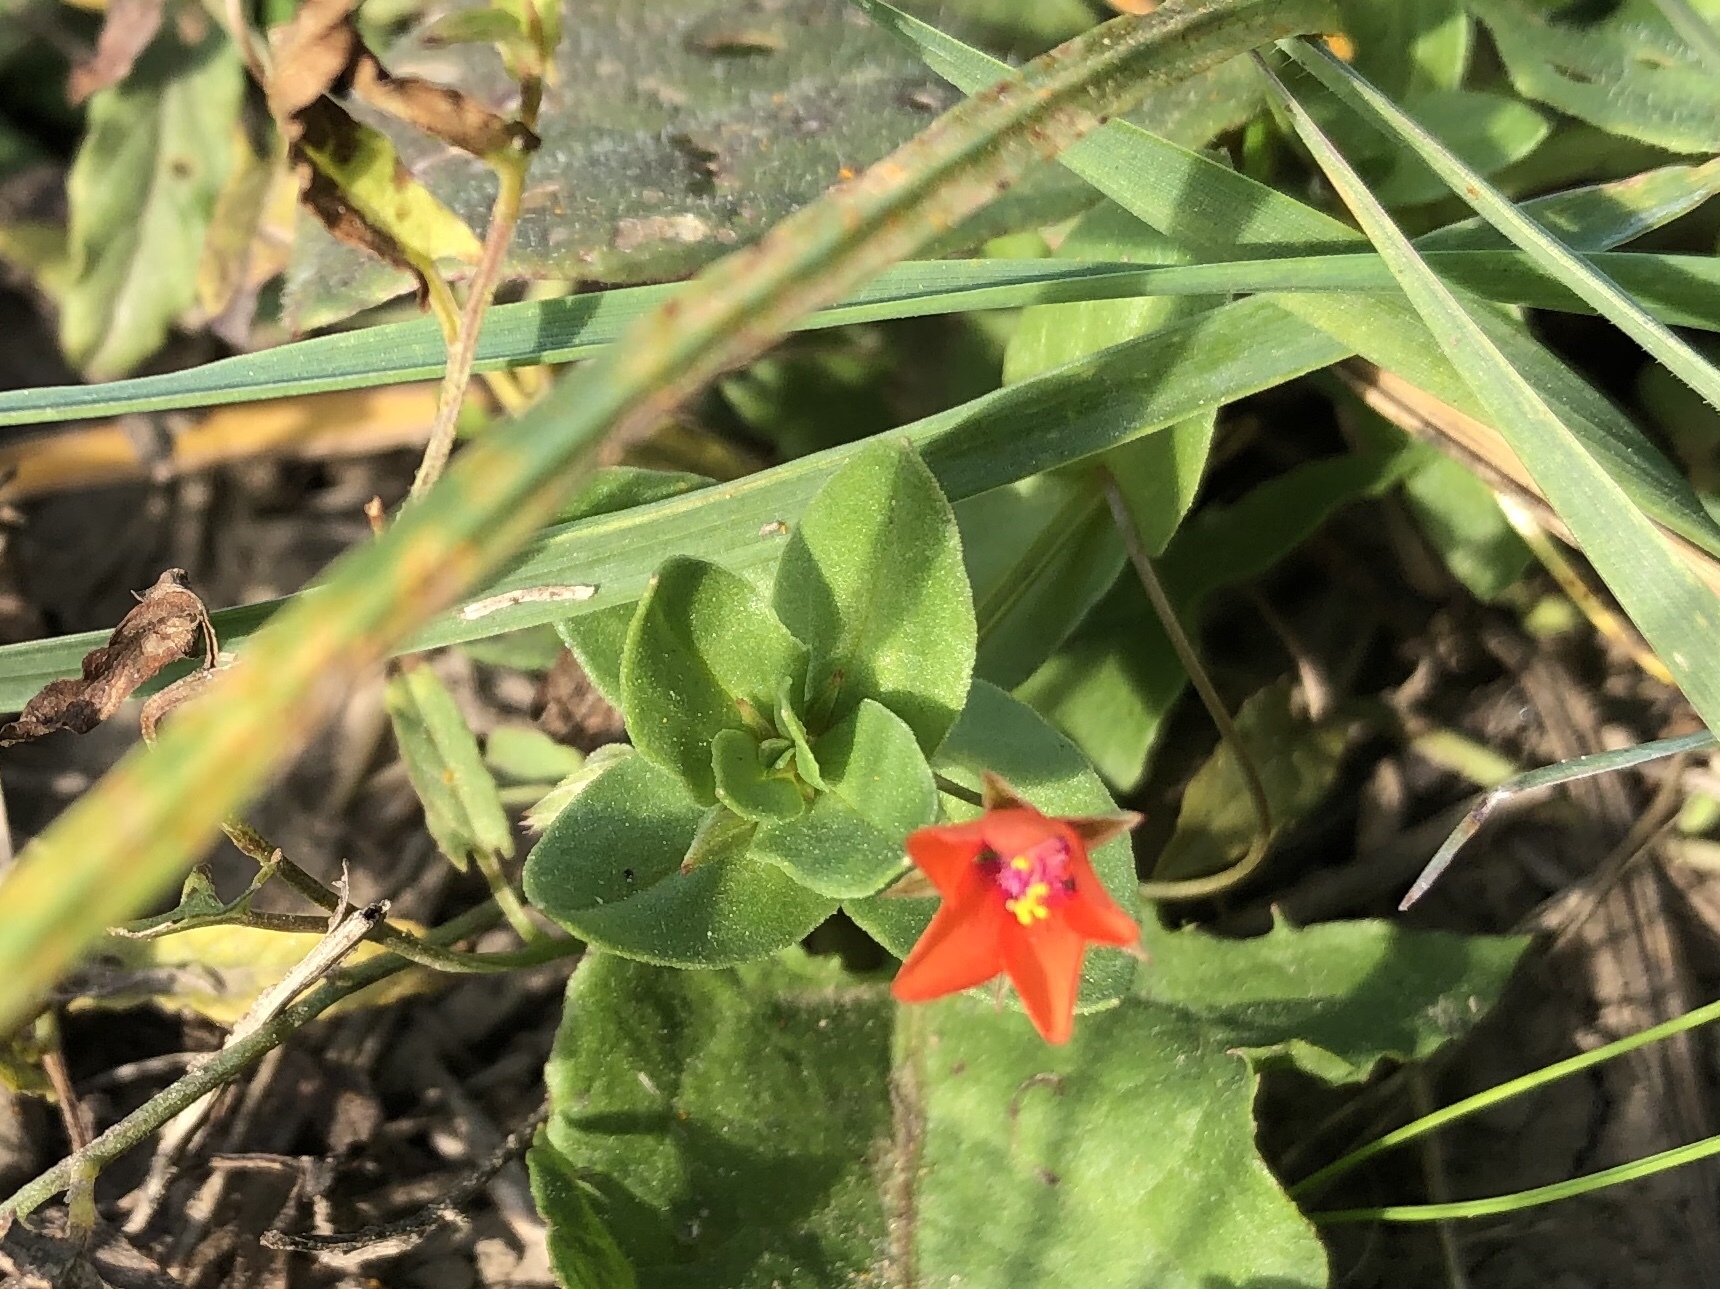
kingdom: Plantae
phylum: Tracheophyta
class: Magnoliopsida
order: Ericales
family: Primulaceae
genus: Lysimachia
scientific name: Lysimachia arvensis
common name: Scarlet pimpernel
